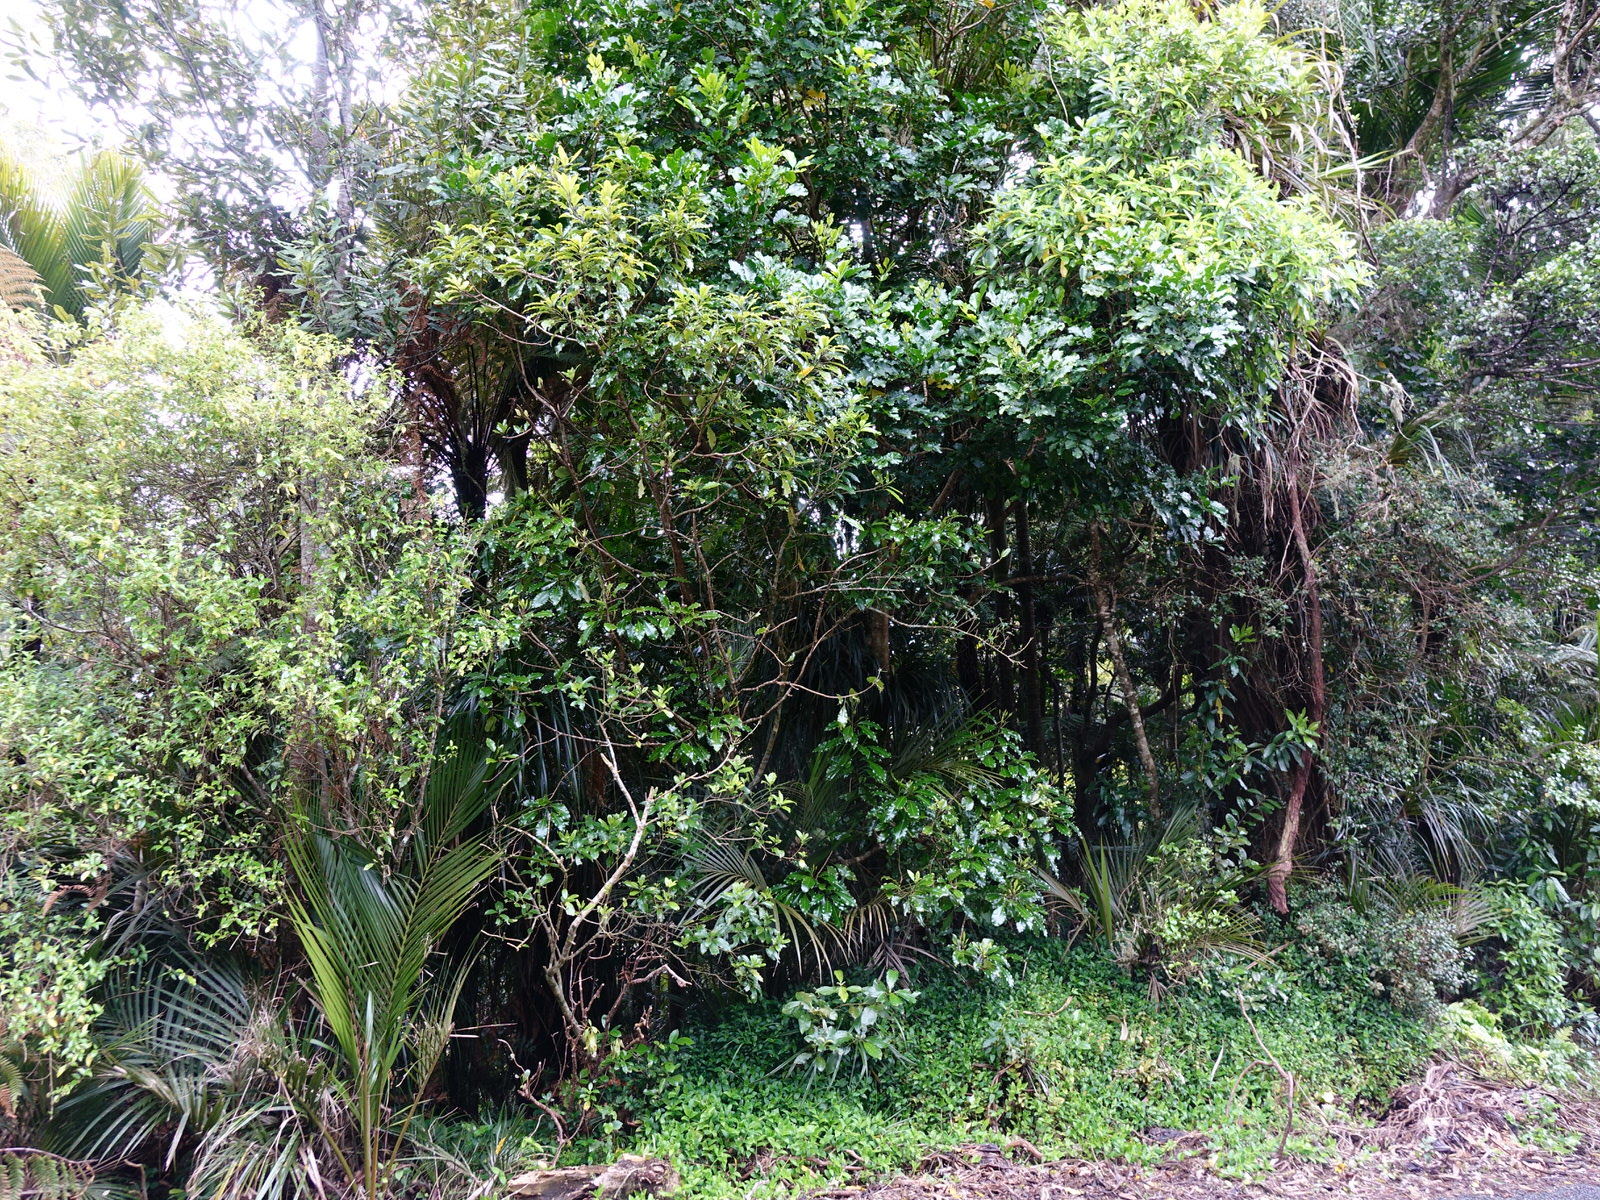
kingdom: Plantae
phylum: Tracheophyta
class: Magnoliopsida
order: Apiales
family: Araliaceae
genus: Raukaua
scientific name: Raukaua edgerleyi
